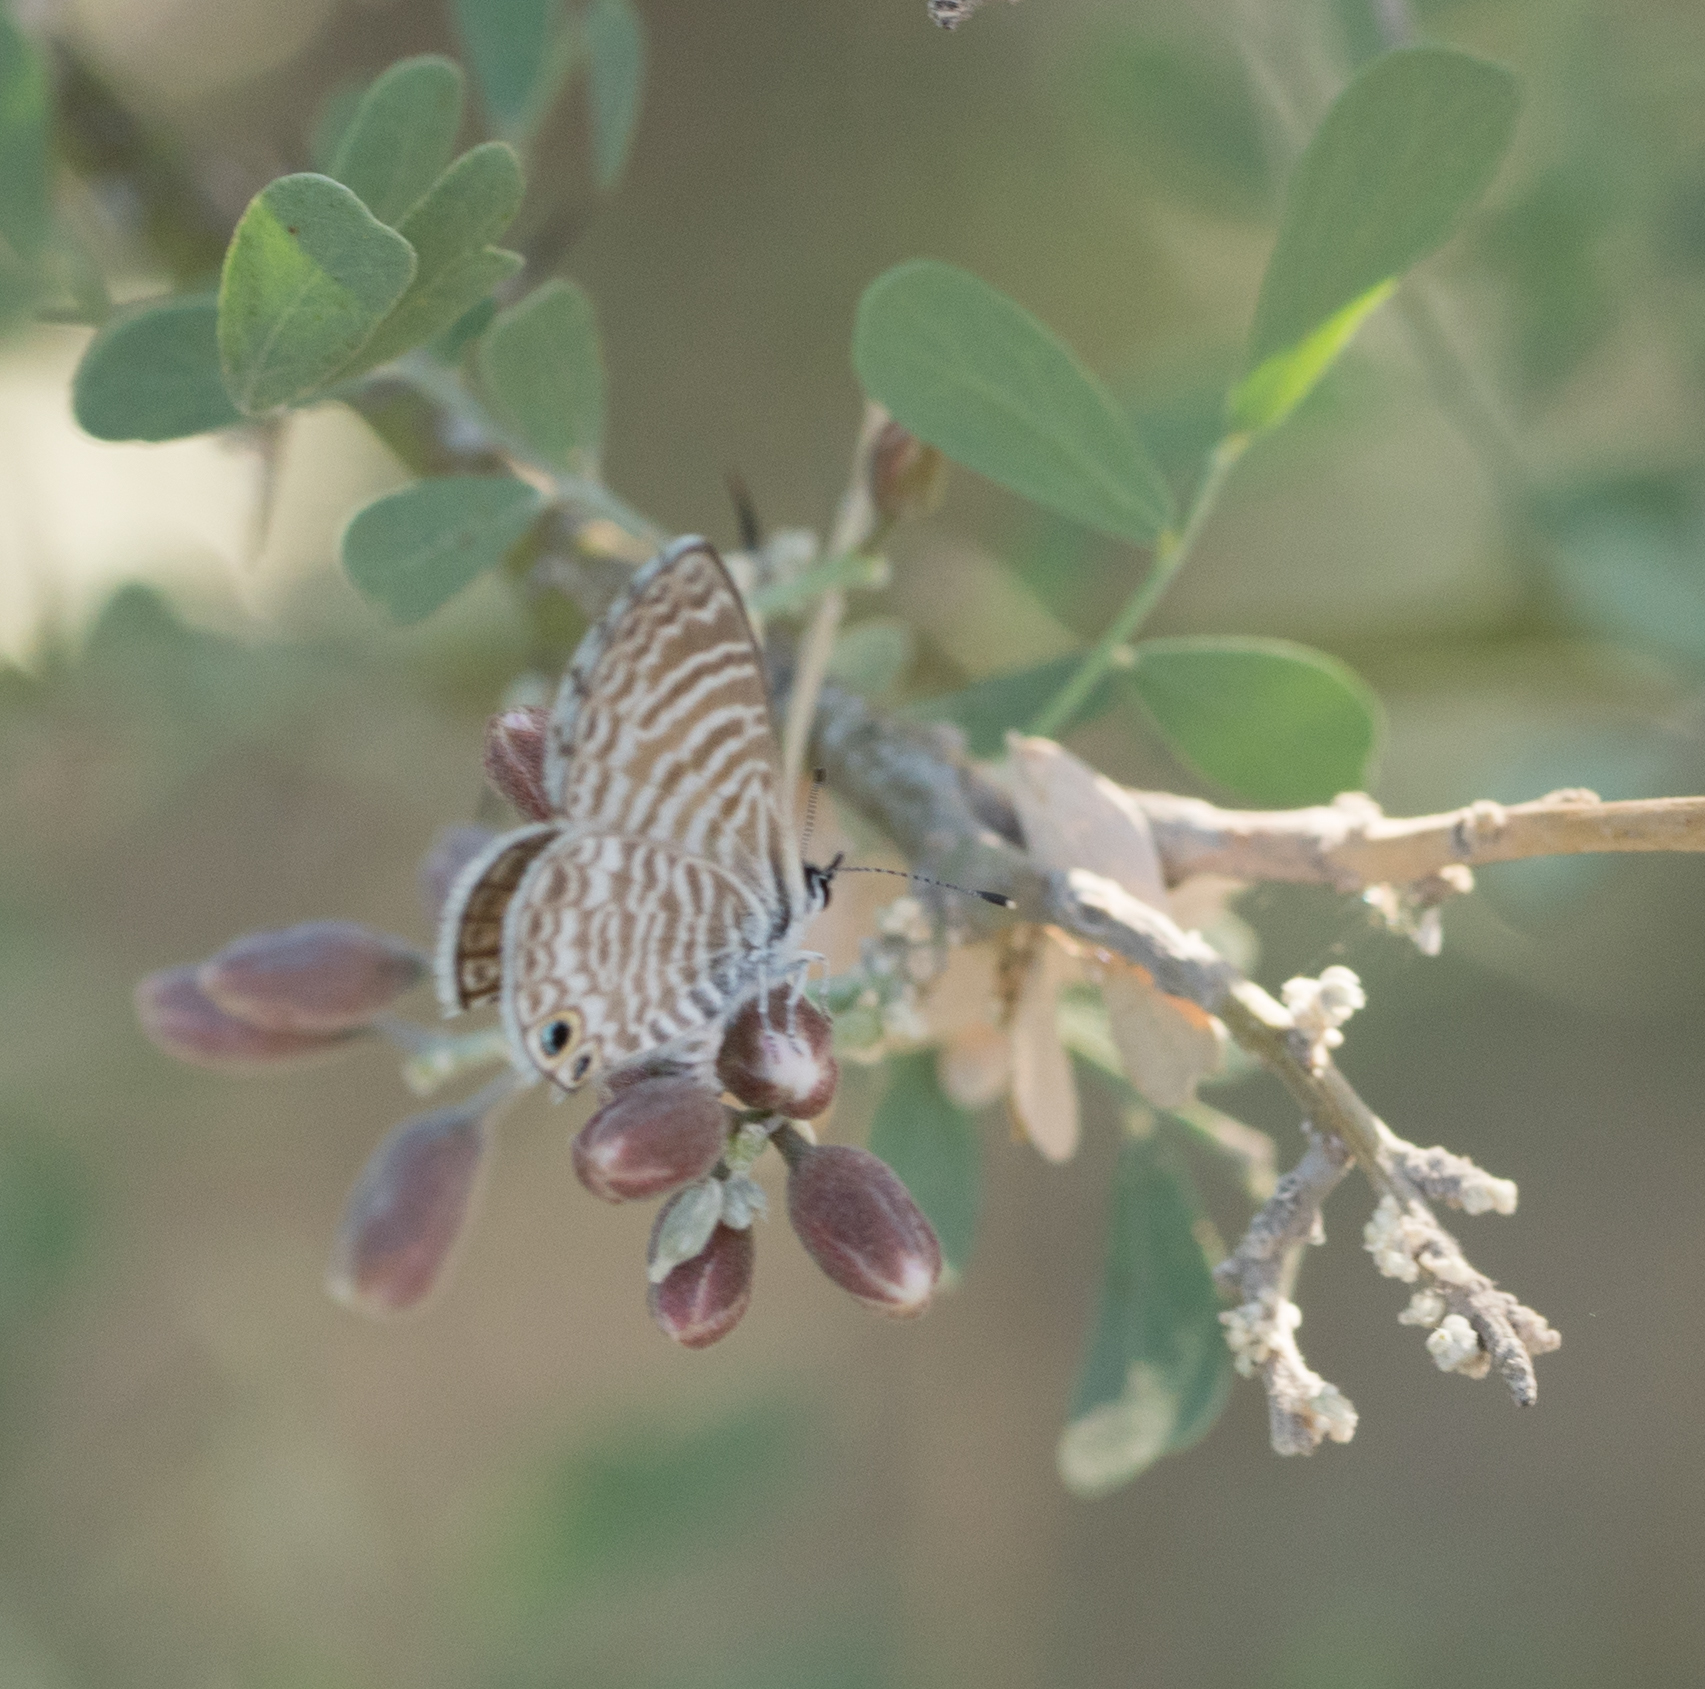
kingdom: Animalia
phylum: Arthropoda
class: Insecta
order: Lepidoptera
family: Lycaenidae
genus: Leptotes
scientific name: Leptotes marina
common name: Marine blue
